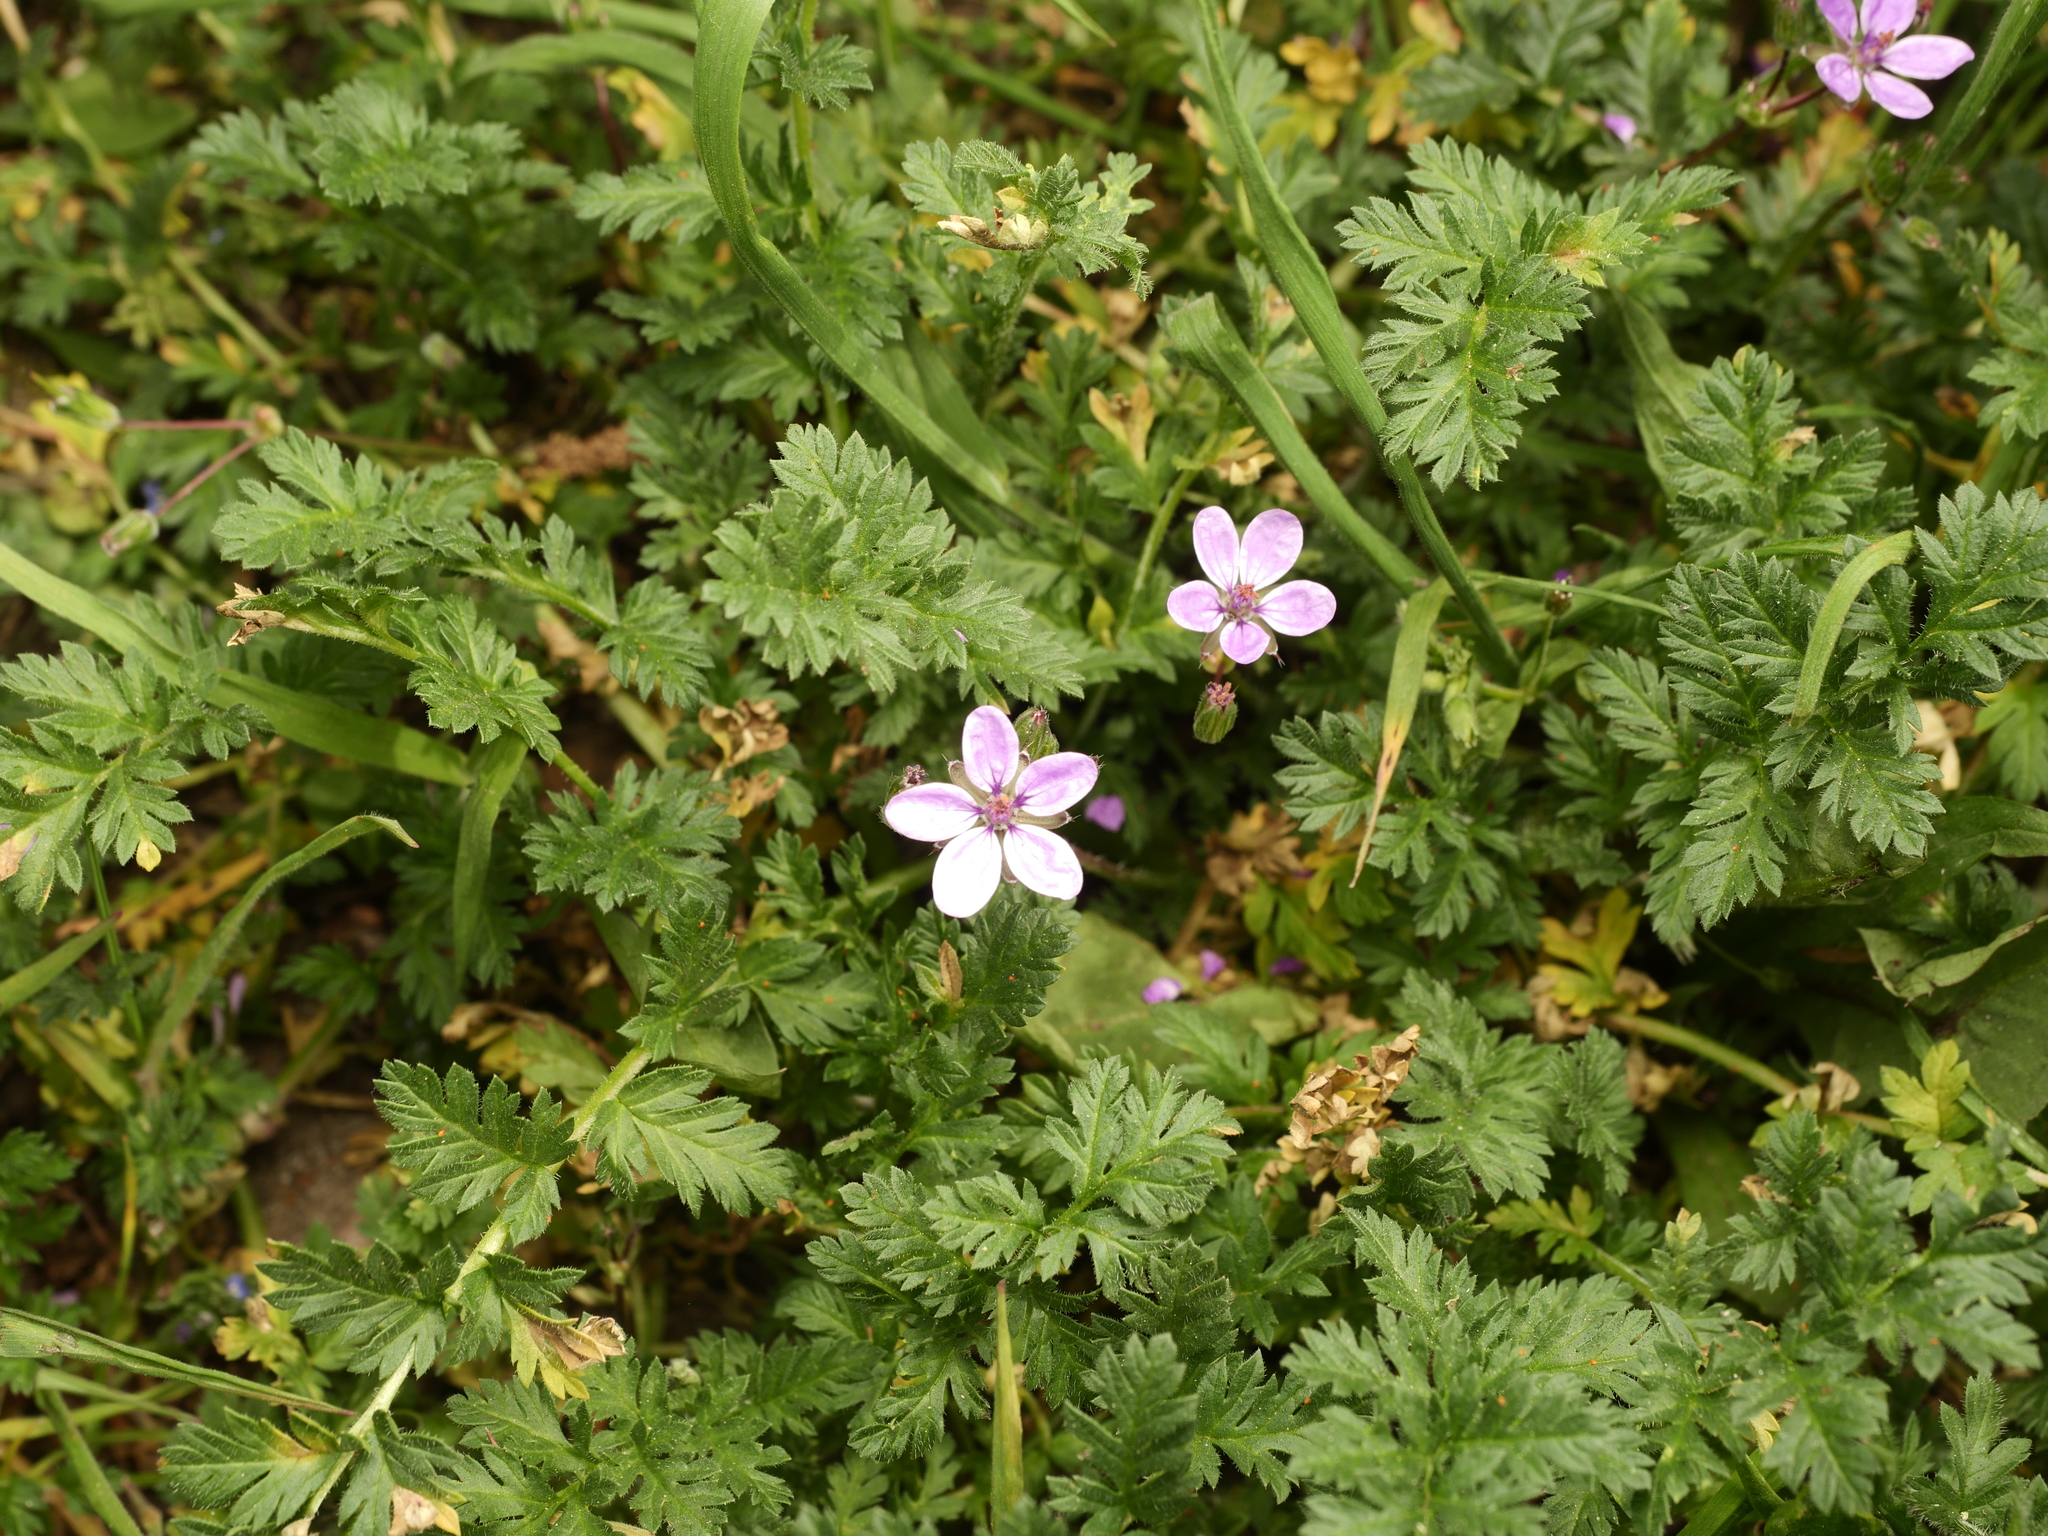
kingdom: Plantae
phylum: Tracheophyta
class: Magnoliopsida
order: Geraniales
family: Geraniaceae
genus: Erodium
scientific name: Erodium cicutarium
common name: Common stork's-bill
